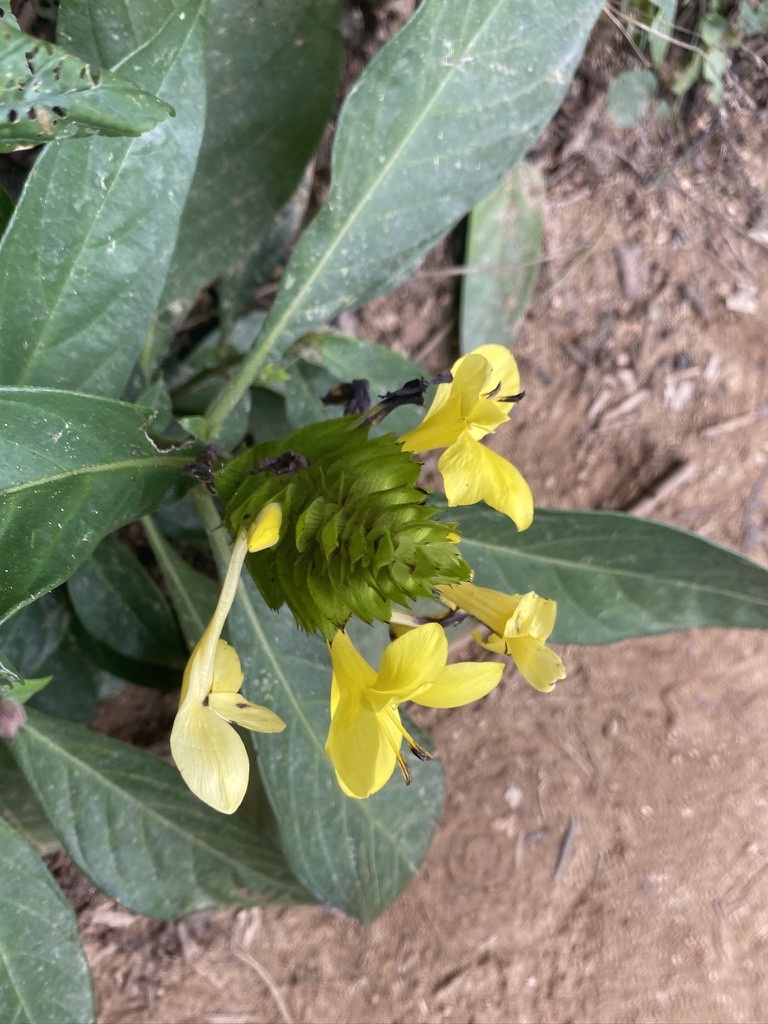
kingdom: Plantae
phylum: Tracheophyta
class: Magnoliopsida
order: Lamiales
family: Acanthaceae
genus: Barleria
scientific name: Barleria oenotheroides
